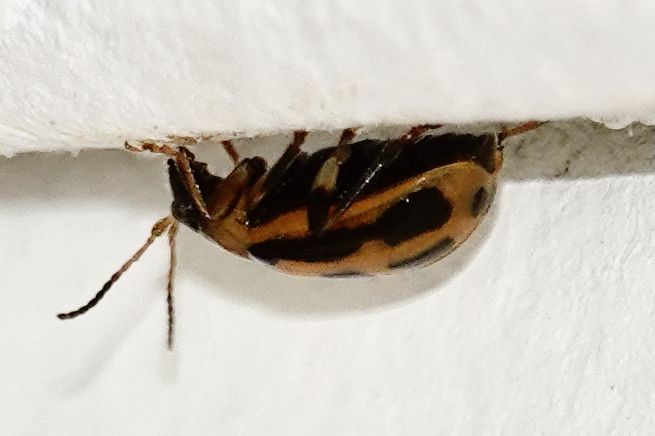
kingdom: Animalia
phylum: Arthropoda
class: Insecta
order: Coleoptera
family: Chrysomelidae
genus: Cerotoma
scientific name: Cerotoma trifurcata
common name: Bean leaf beetle
